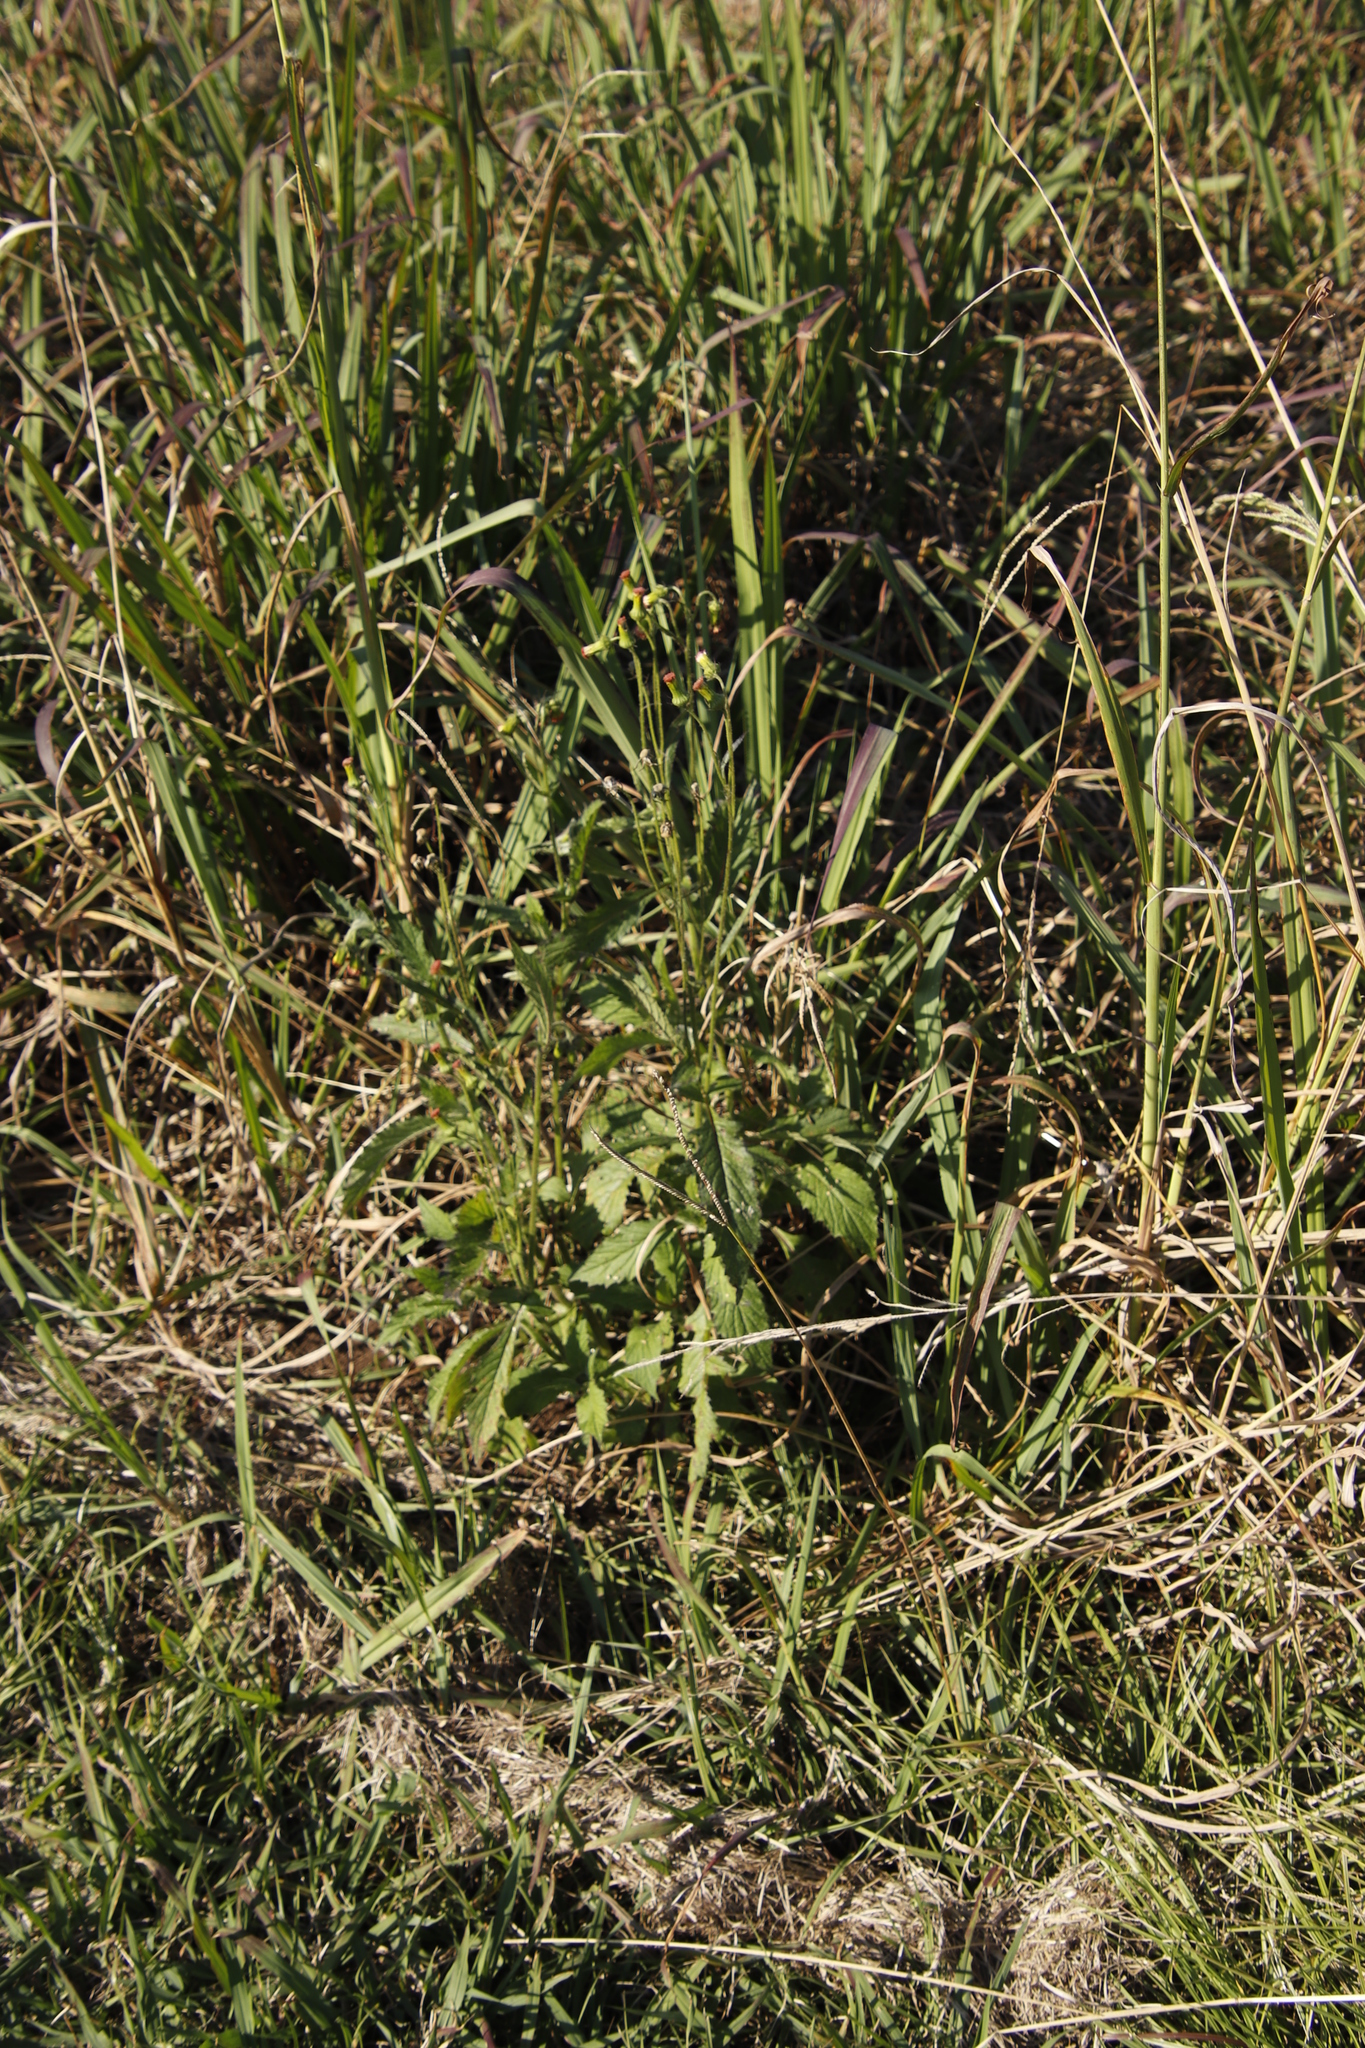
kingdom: Plantae
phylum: Tracheophyta
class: Magnoliopsida
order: Asterales
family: Asteraceae
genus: Crassocephalum
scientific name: Crassocephalum crepidioides
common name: Redflower ragleaf
